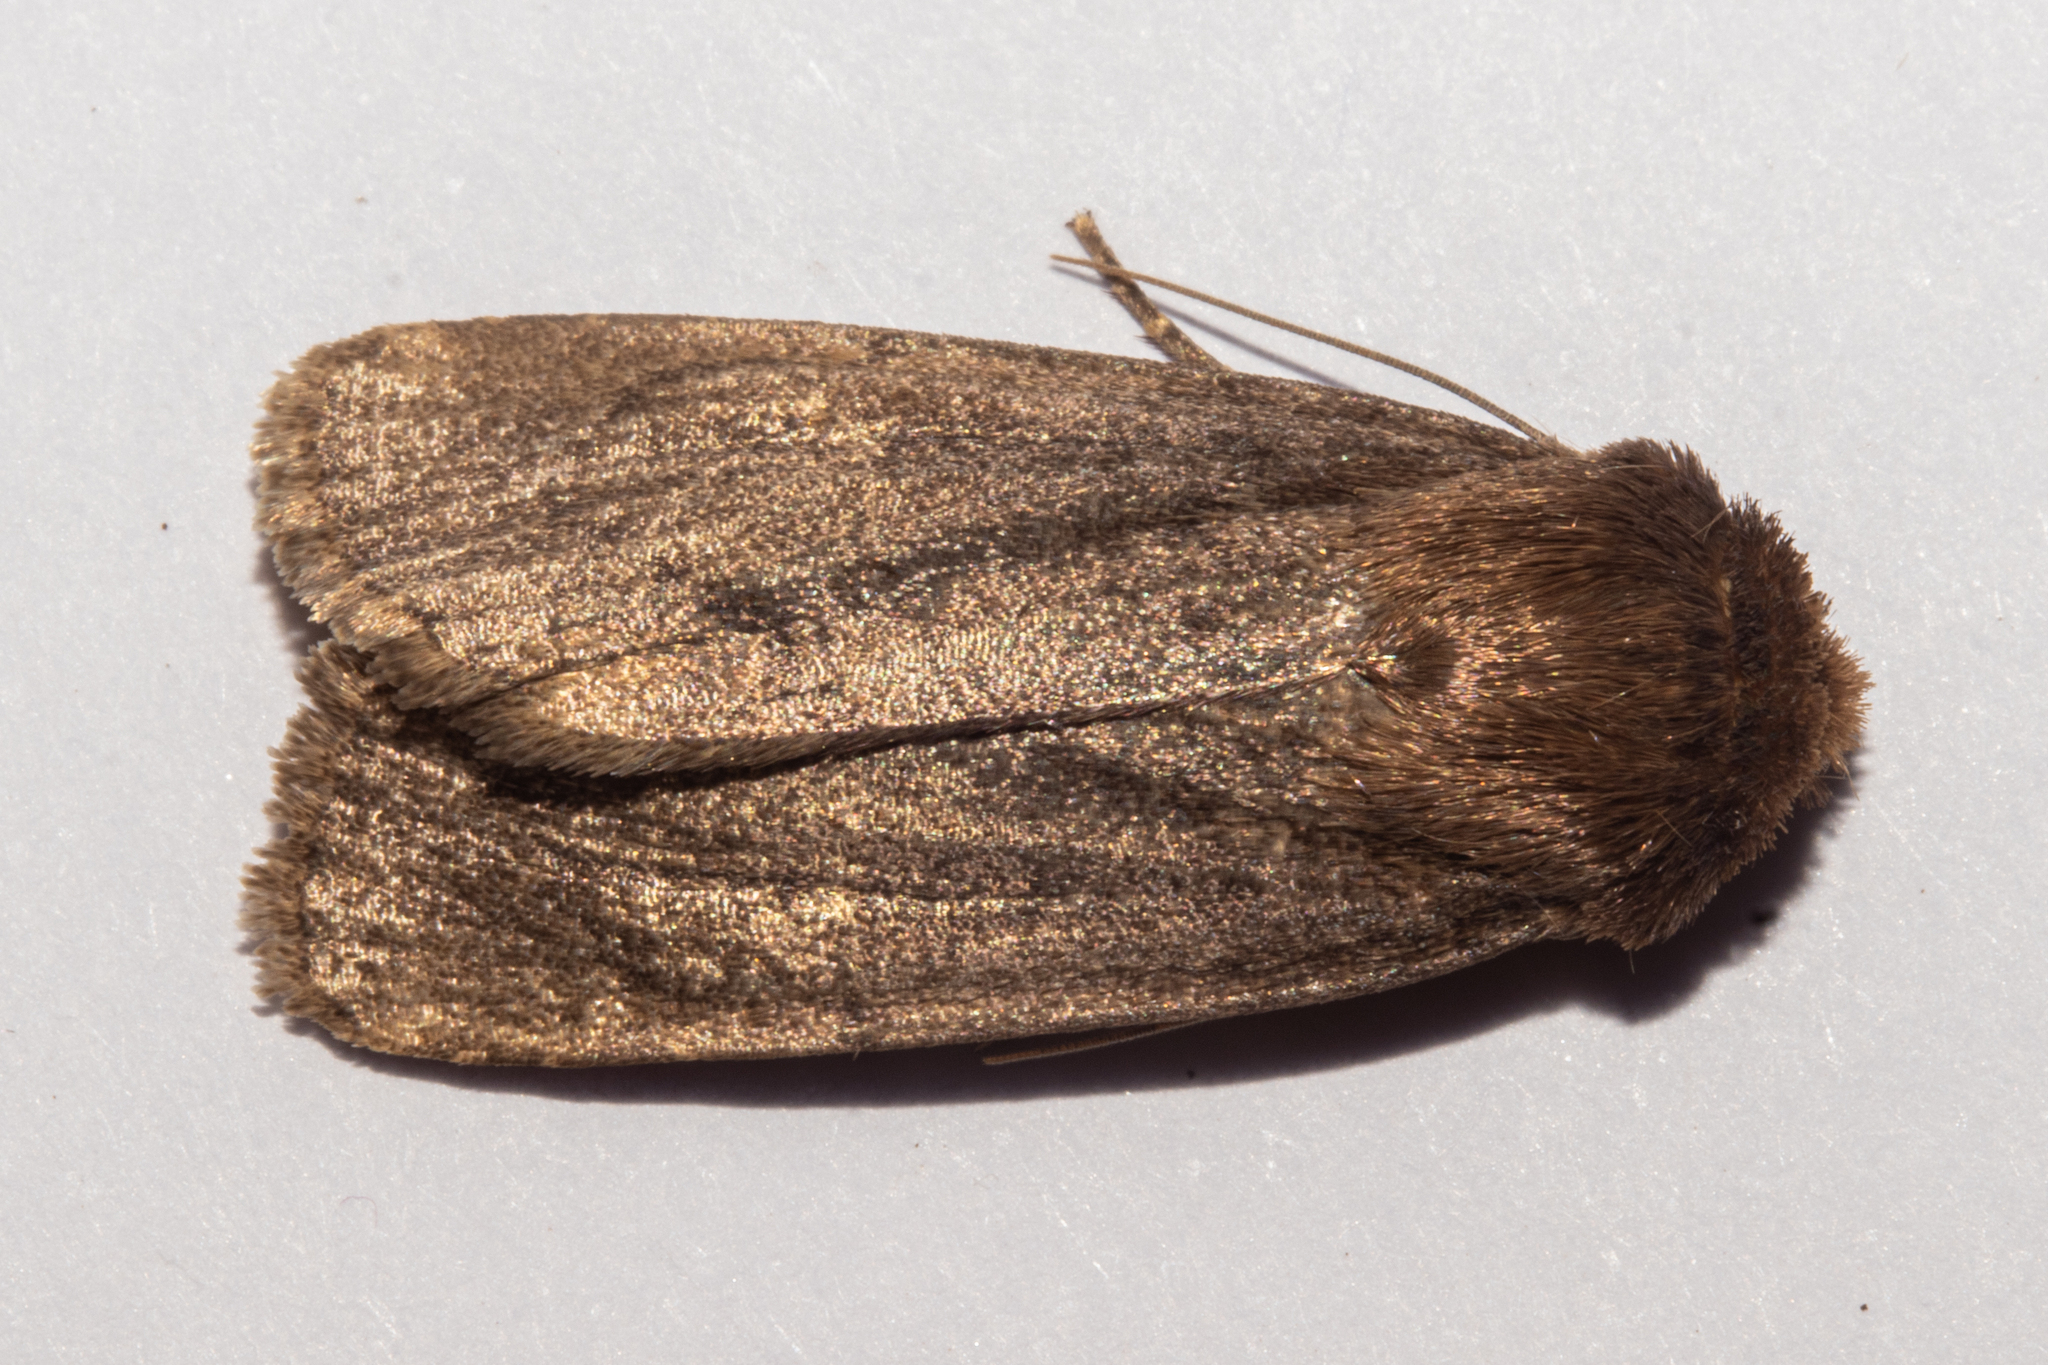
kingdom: Animalia
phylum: Arthropoda
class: Insecta
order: Lepidoptera
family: Noctuidae
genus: Bityla
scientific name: Bityla defigurata
